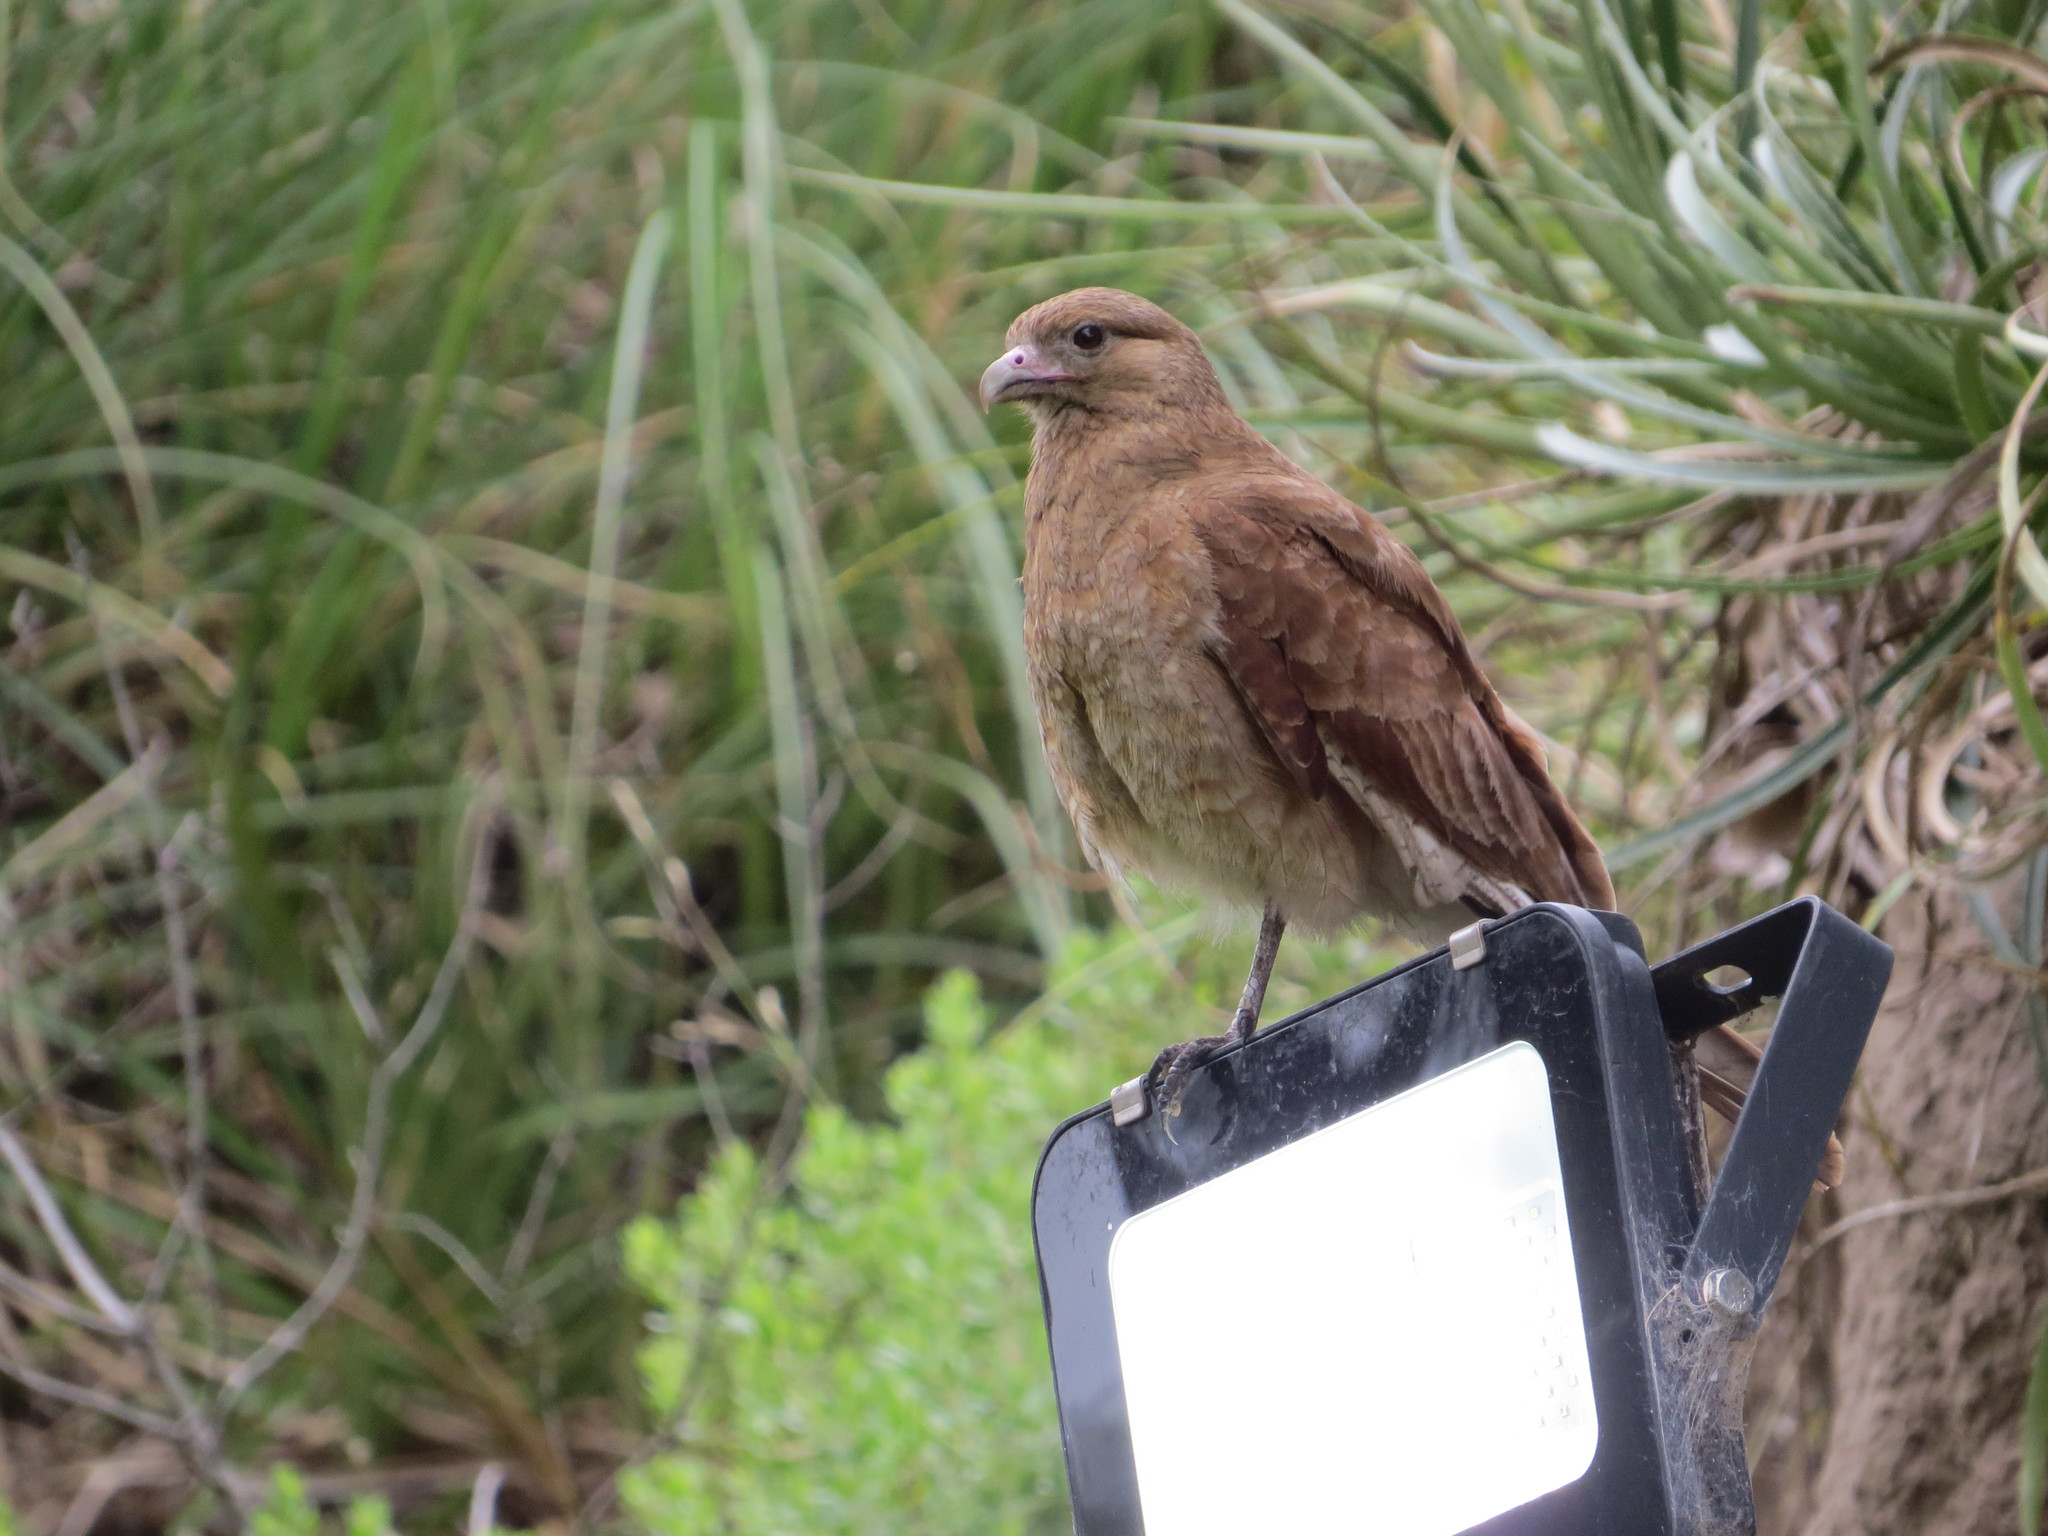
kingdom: Animalia
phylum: Chordata
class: Aves
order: Falconiformes
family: Falconidae
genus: Daptrius
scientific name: Daptrius
